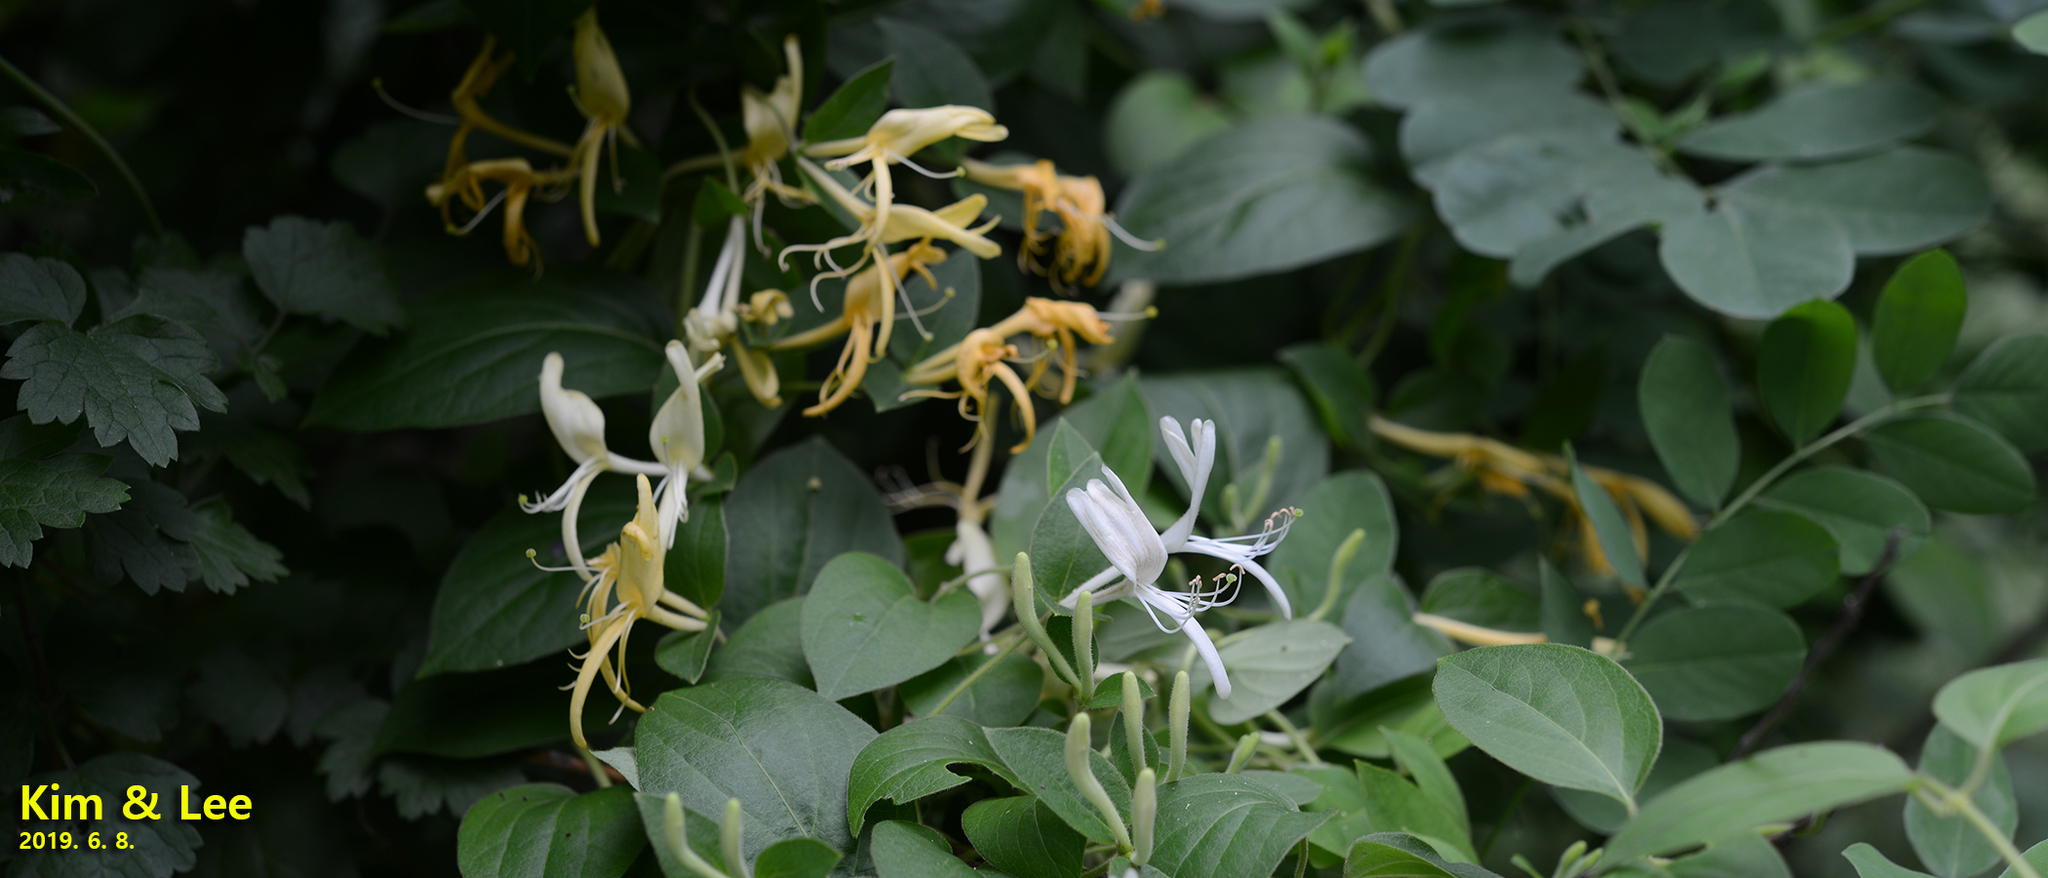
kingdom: Plantae
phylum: Tracheophyta
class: Magnoliopsida
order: Dipsacales
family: Caprifoliaceae
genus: Lonicera
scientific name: Lonicera japonica
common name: Japanese honeysuckle
